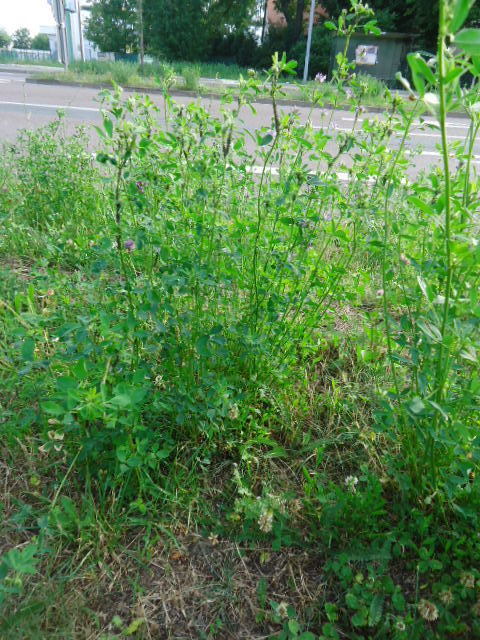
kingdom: Plantae
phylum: Tracheophyta
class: Magnoliopsida
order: Fabales
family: Fabaceae
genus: Medicago
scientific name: Medicago
